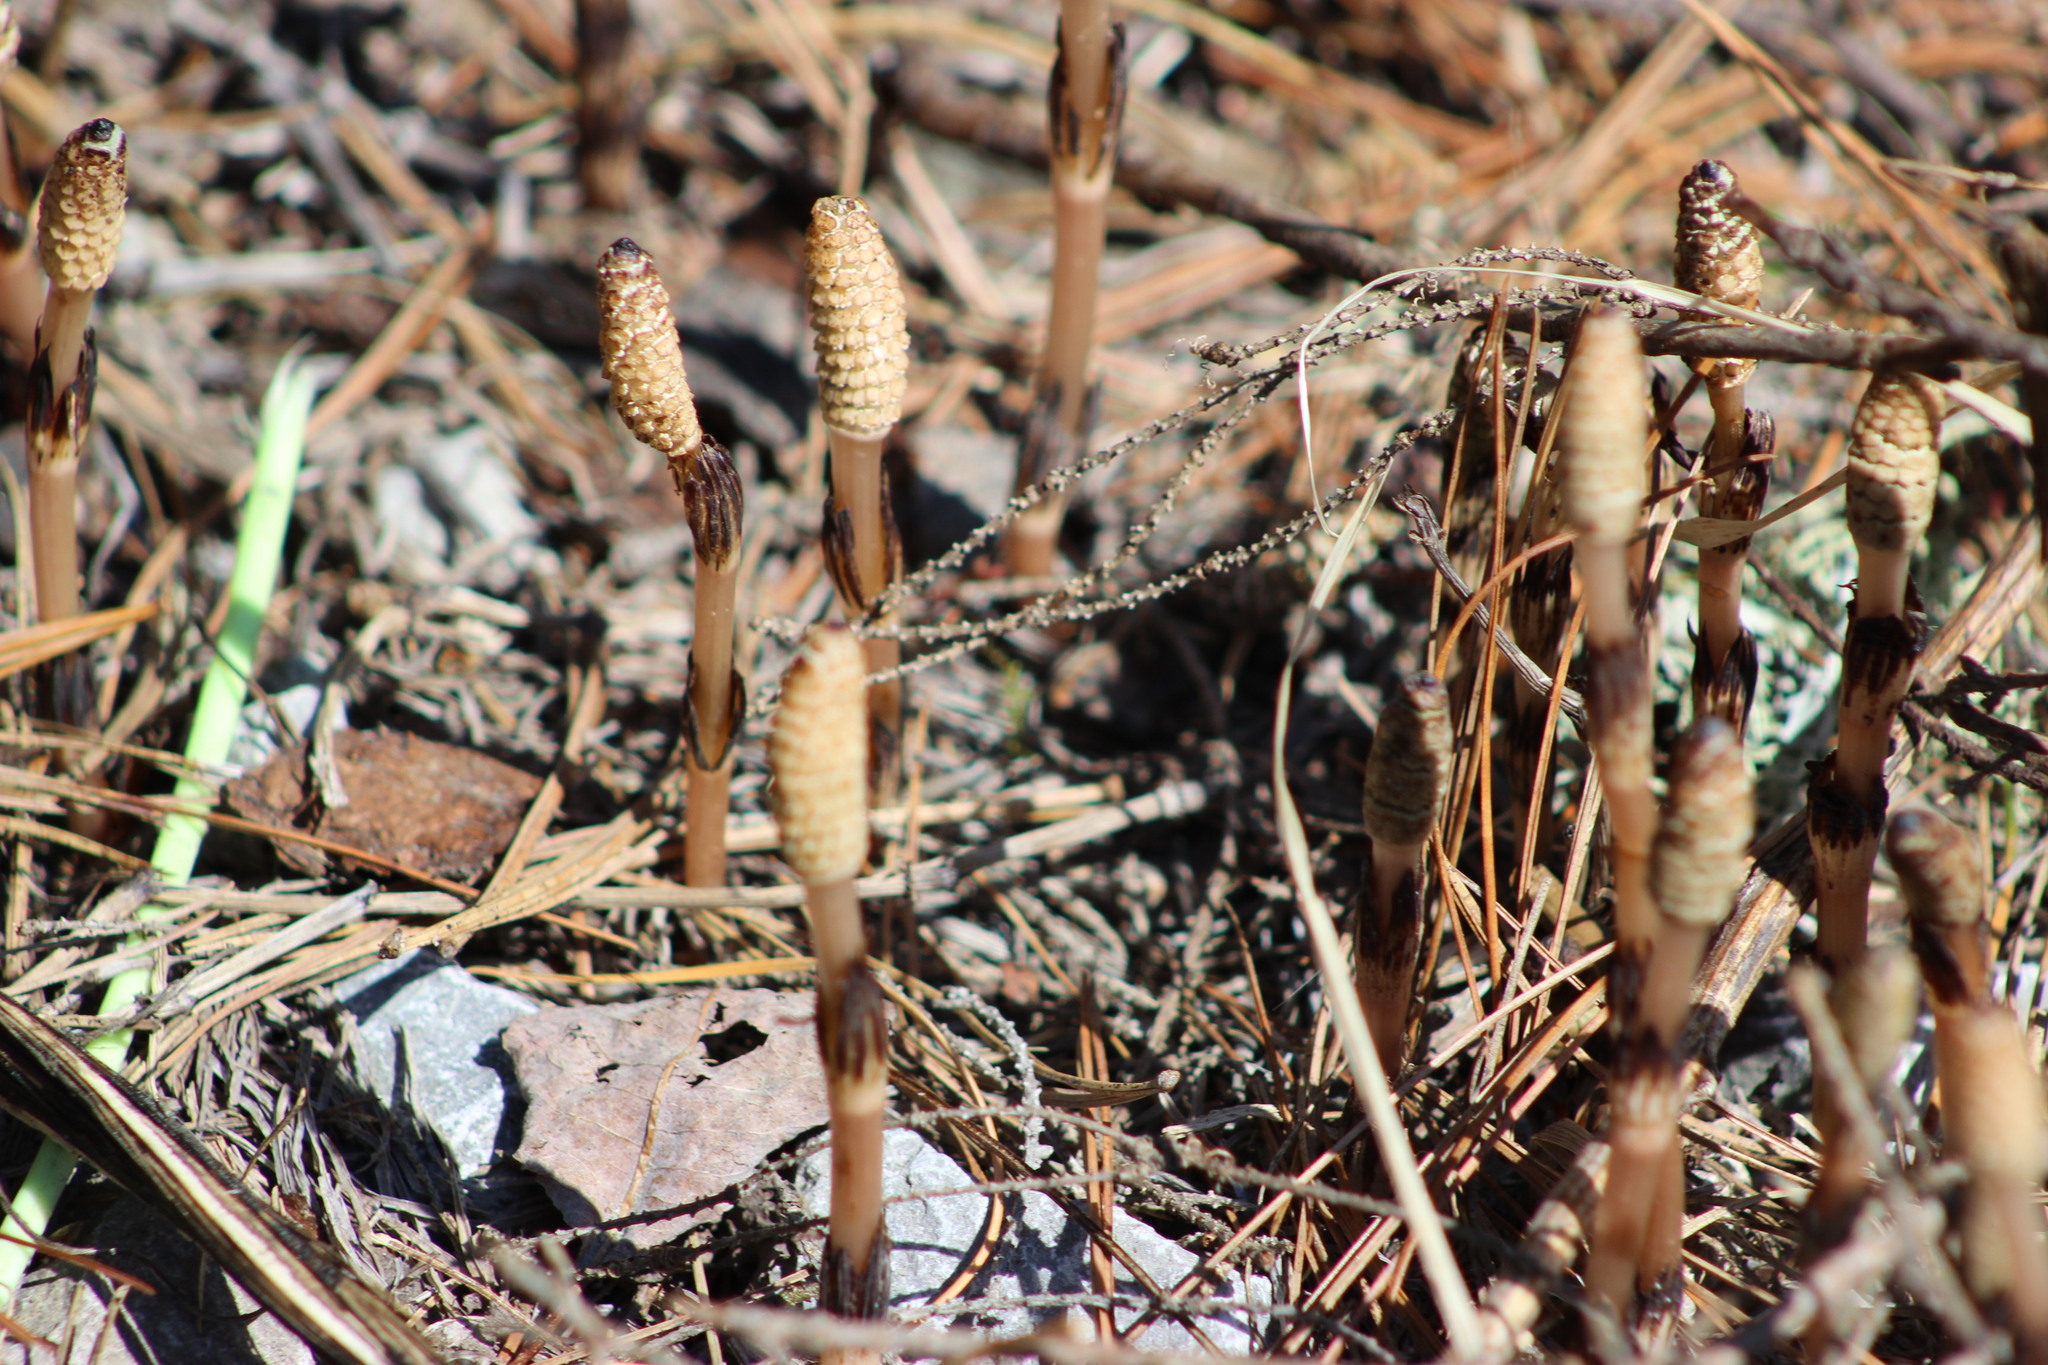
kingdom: Plantae
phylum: Tracheophyta
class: Polypodiopsida
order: Equisetales
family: Equisetaceae
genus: Equisetum
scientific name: Equisetum arvense
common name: Field horsetail
